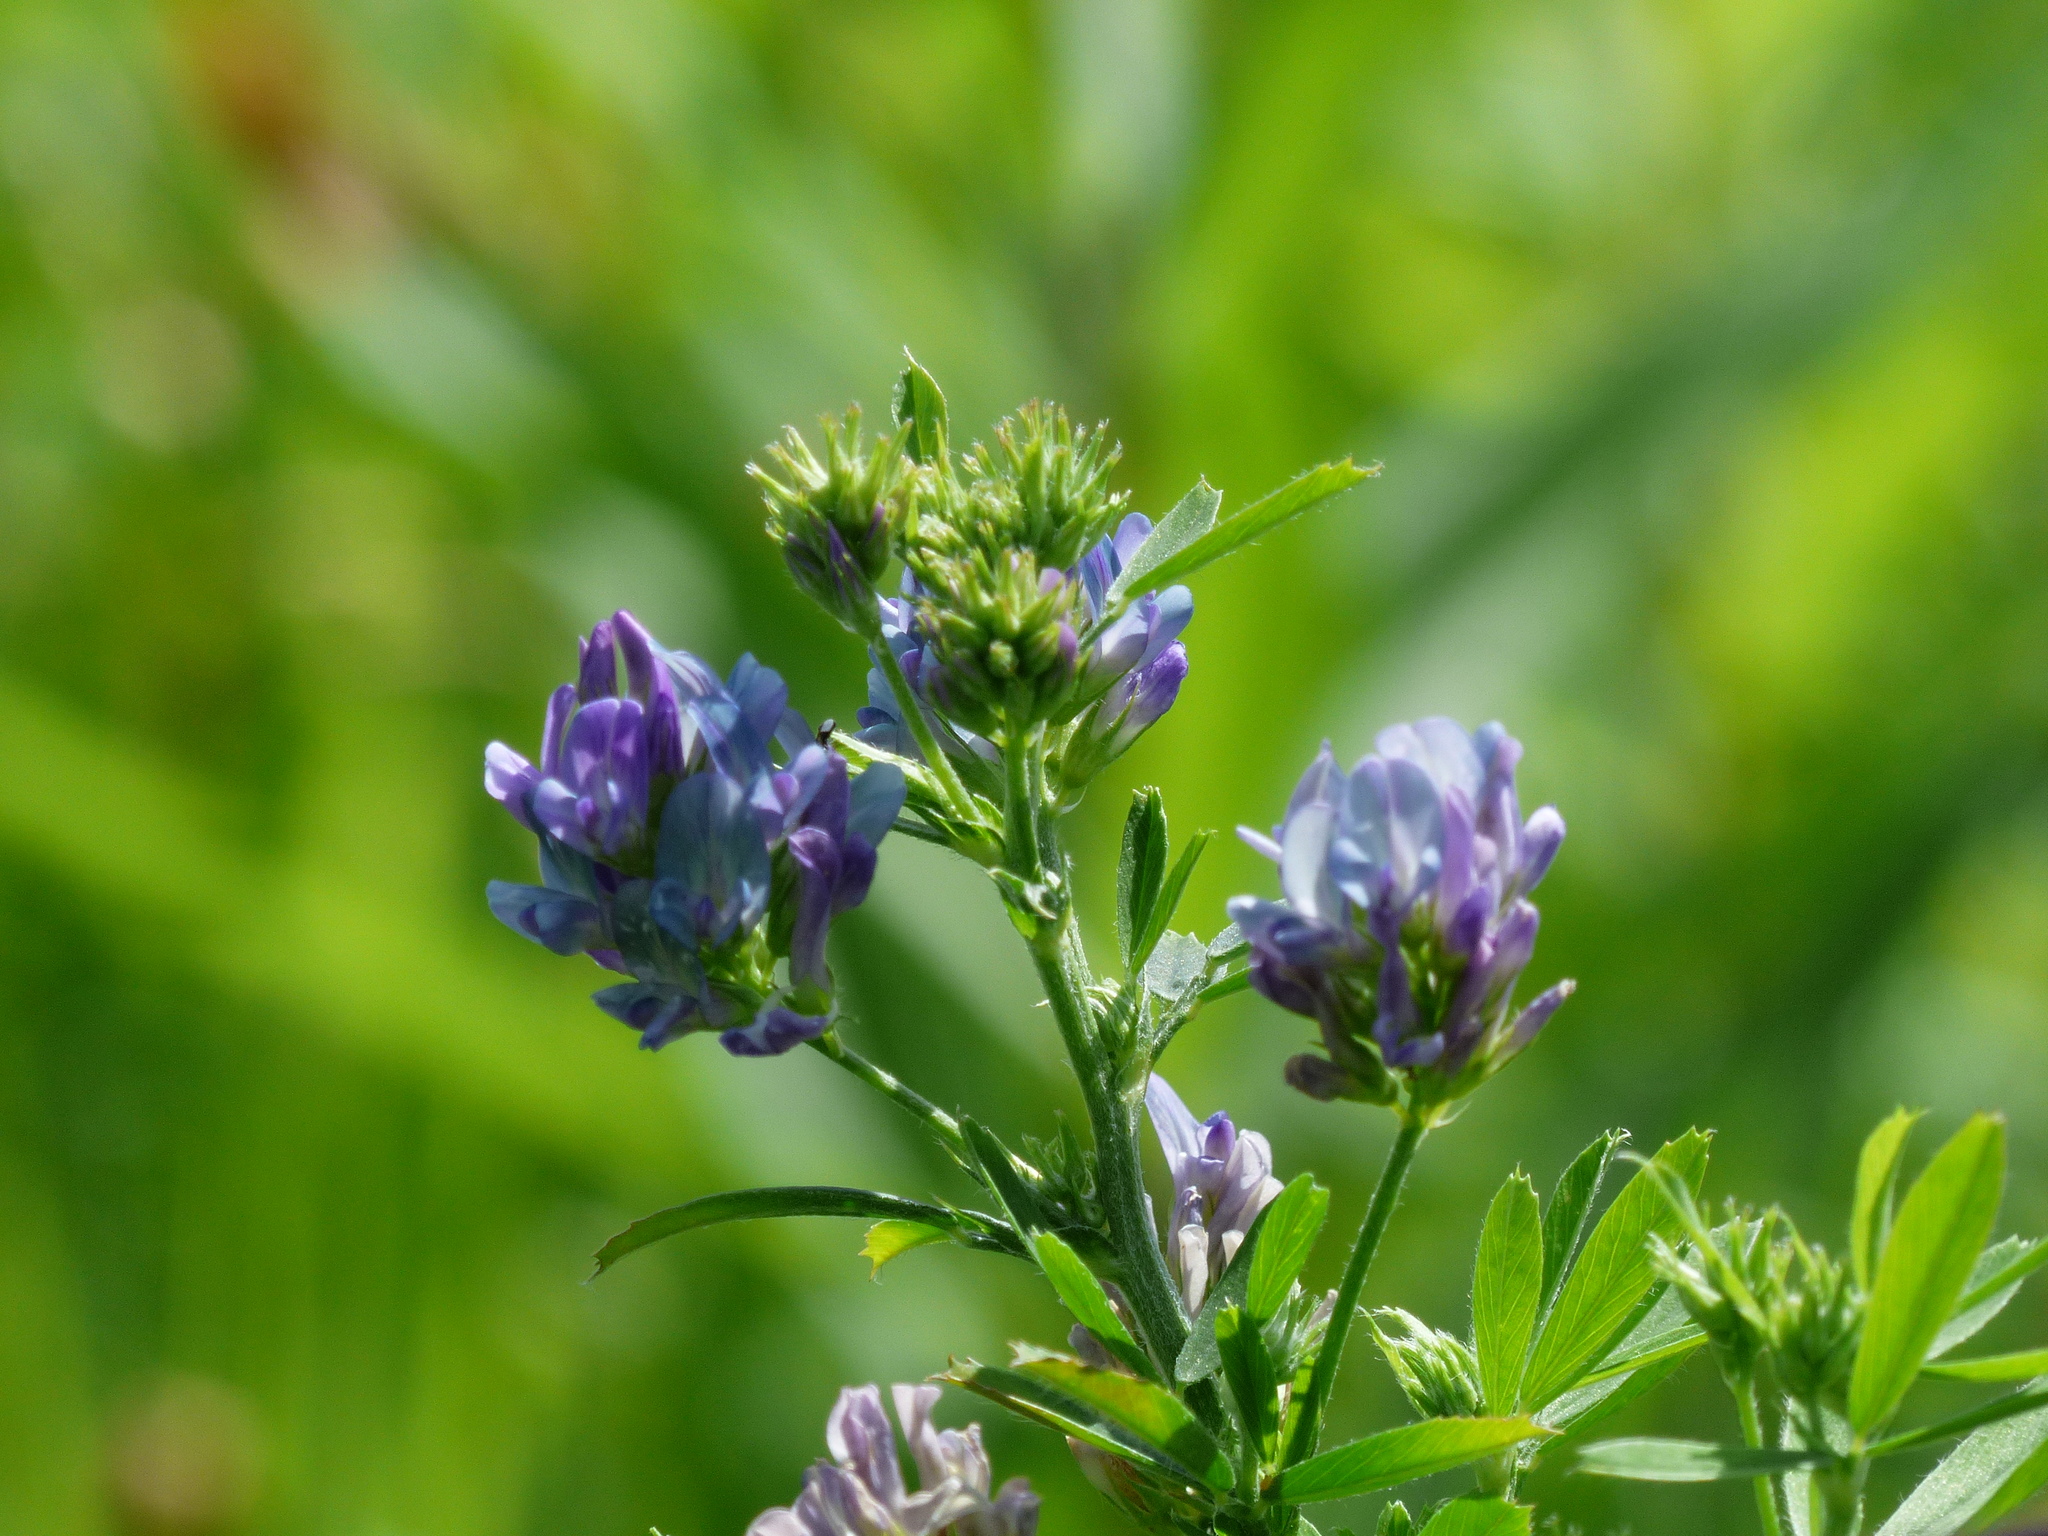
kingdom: Plantae
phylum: Tracheophyta
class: Magnoliopsida
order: Fabales
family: Fabaceae
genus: Medicago
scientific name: Medicago sativa
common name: Alfalfa
